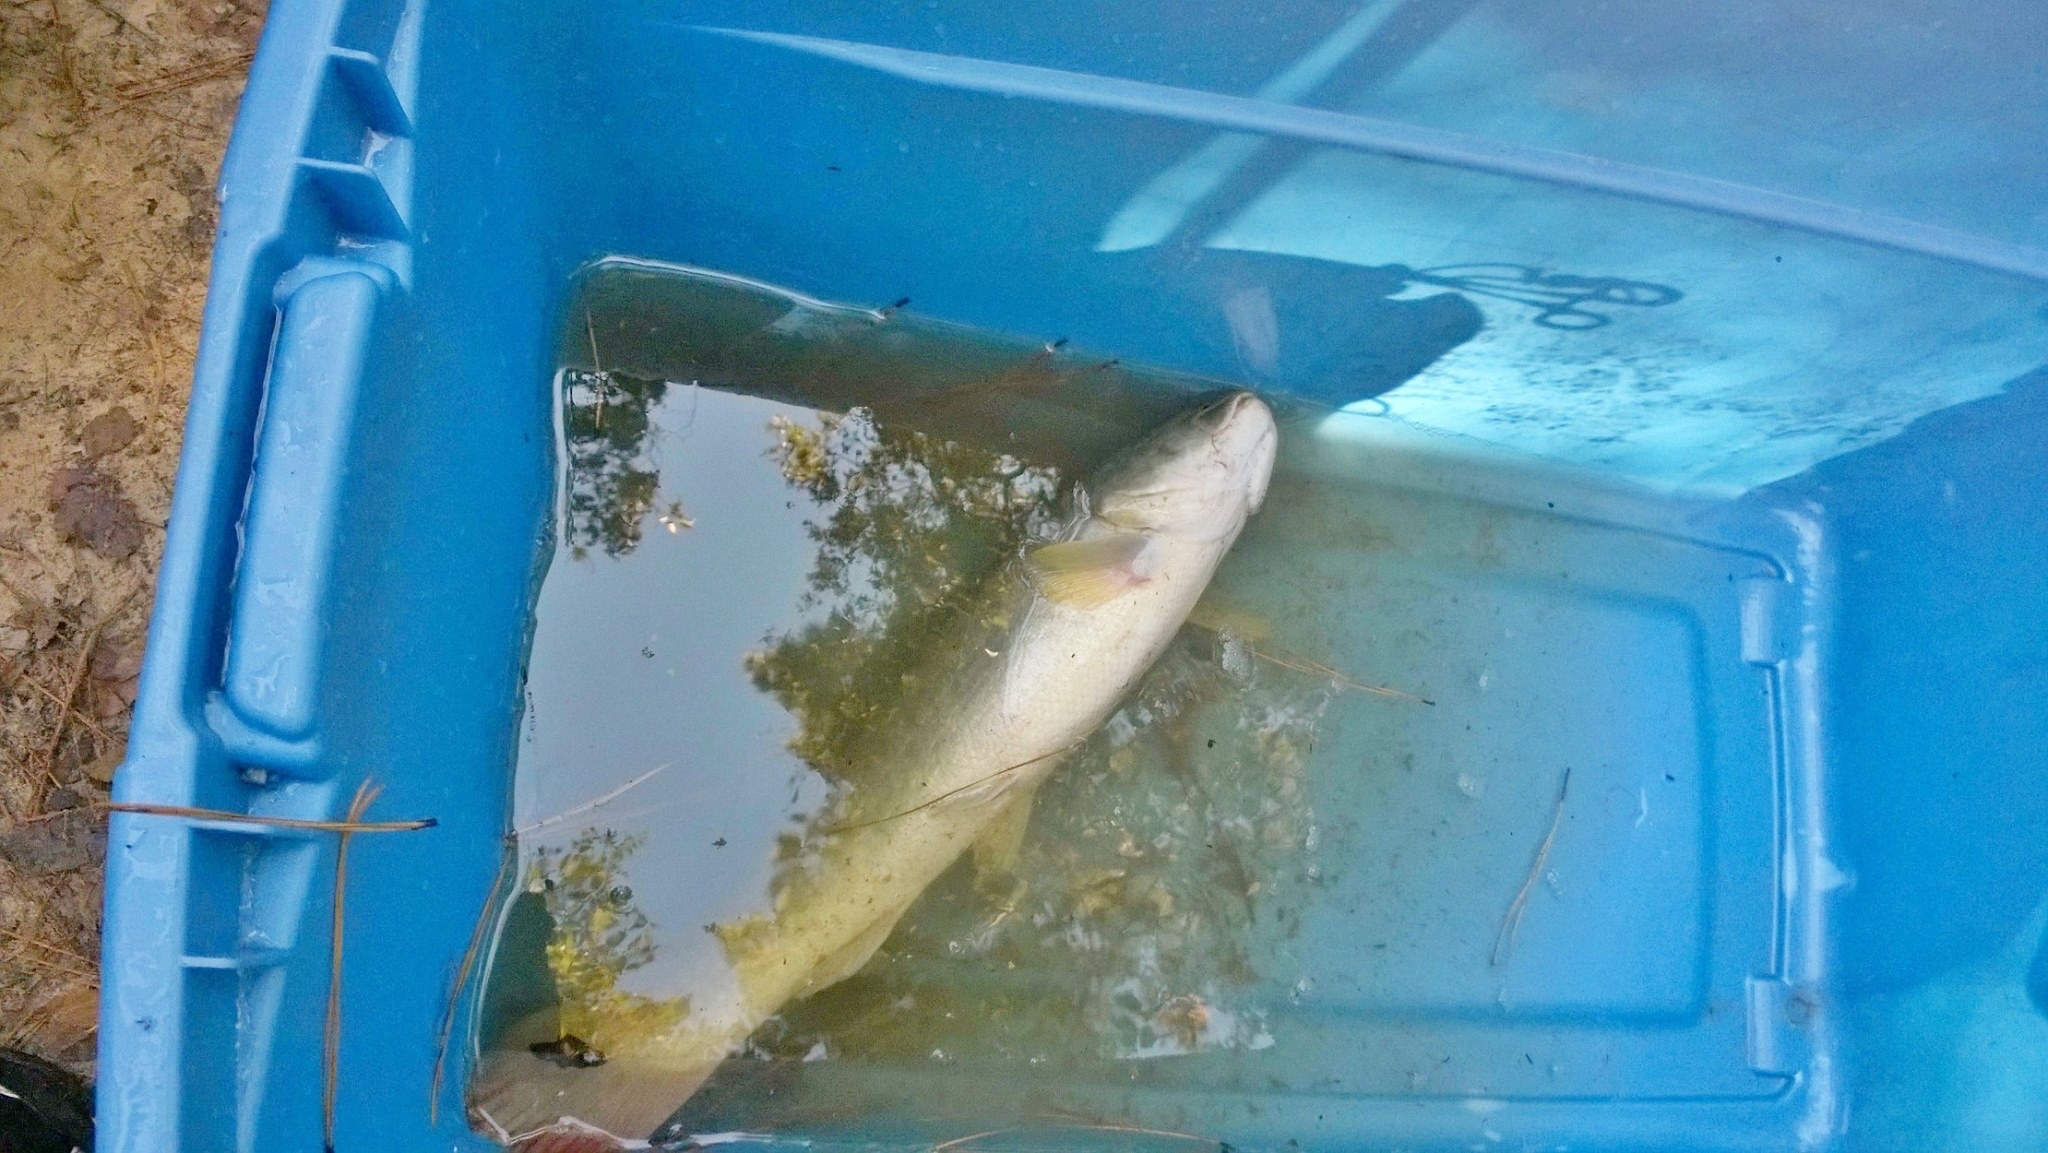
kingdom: Animalia
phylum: Chordata
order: Amiiformes
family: Amiidae
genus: Amia
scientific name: Amia calva
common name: Bowfin
